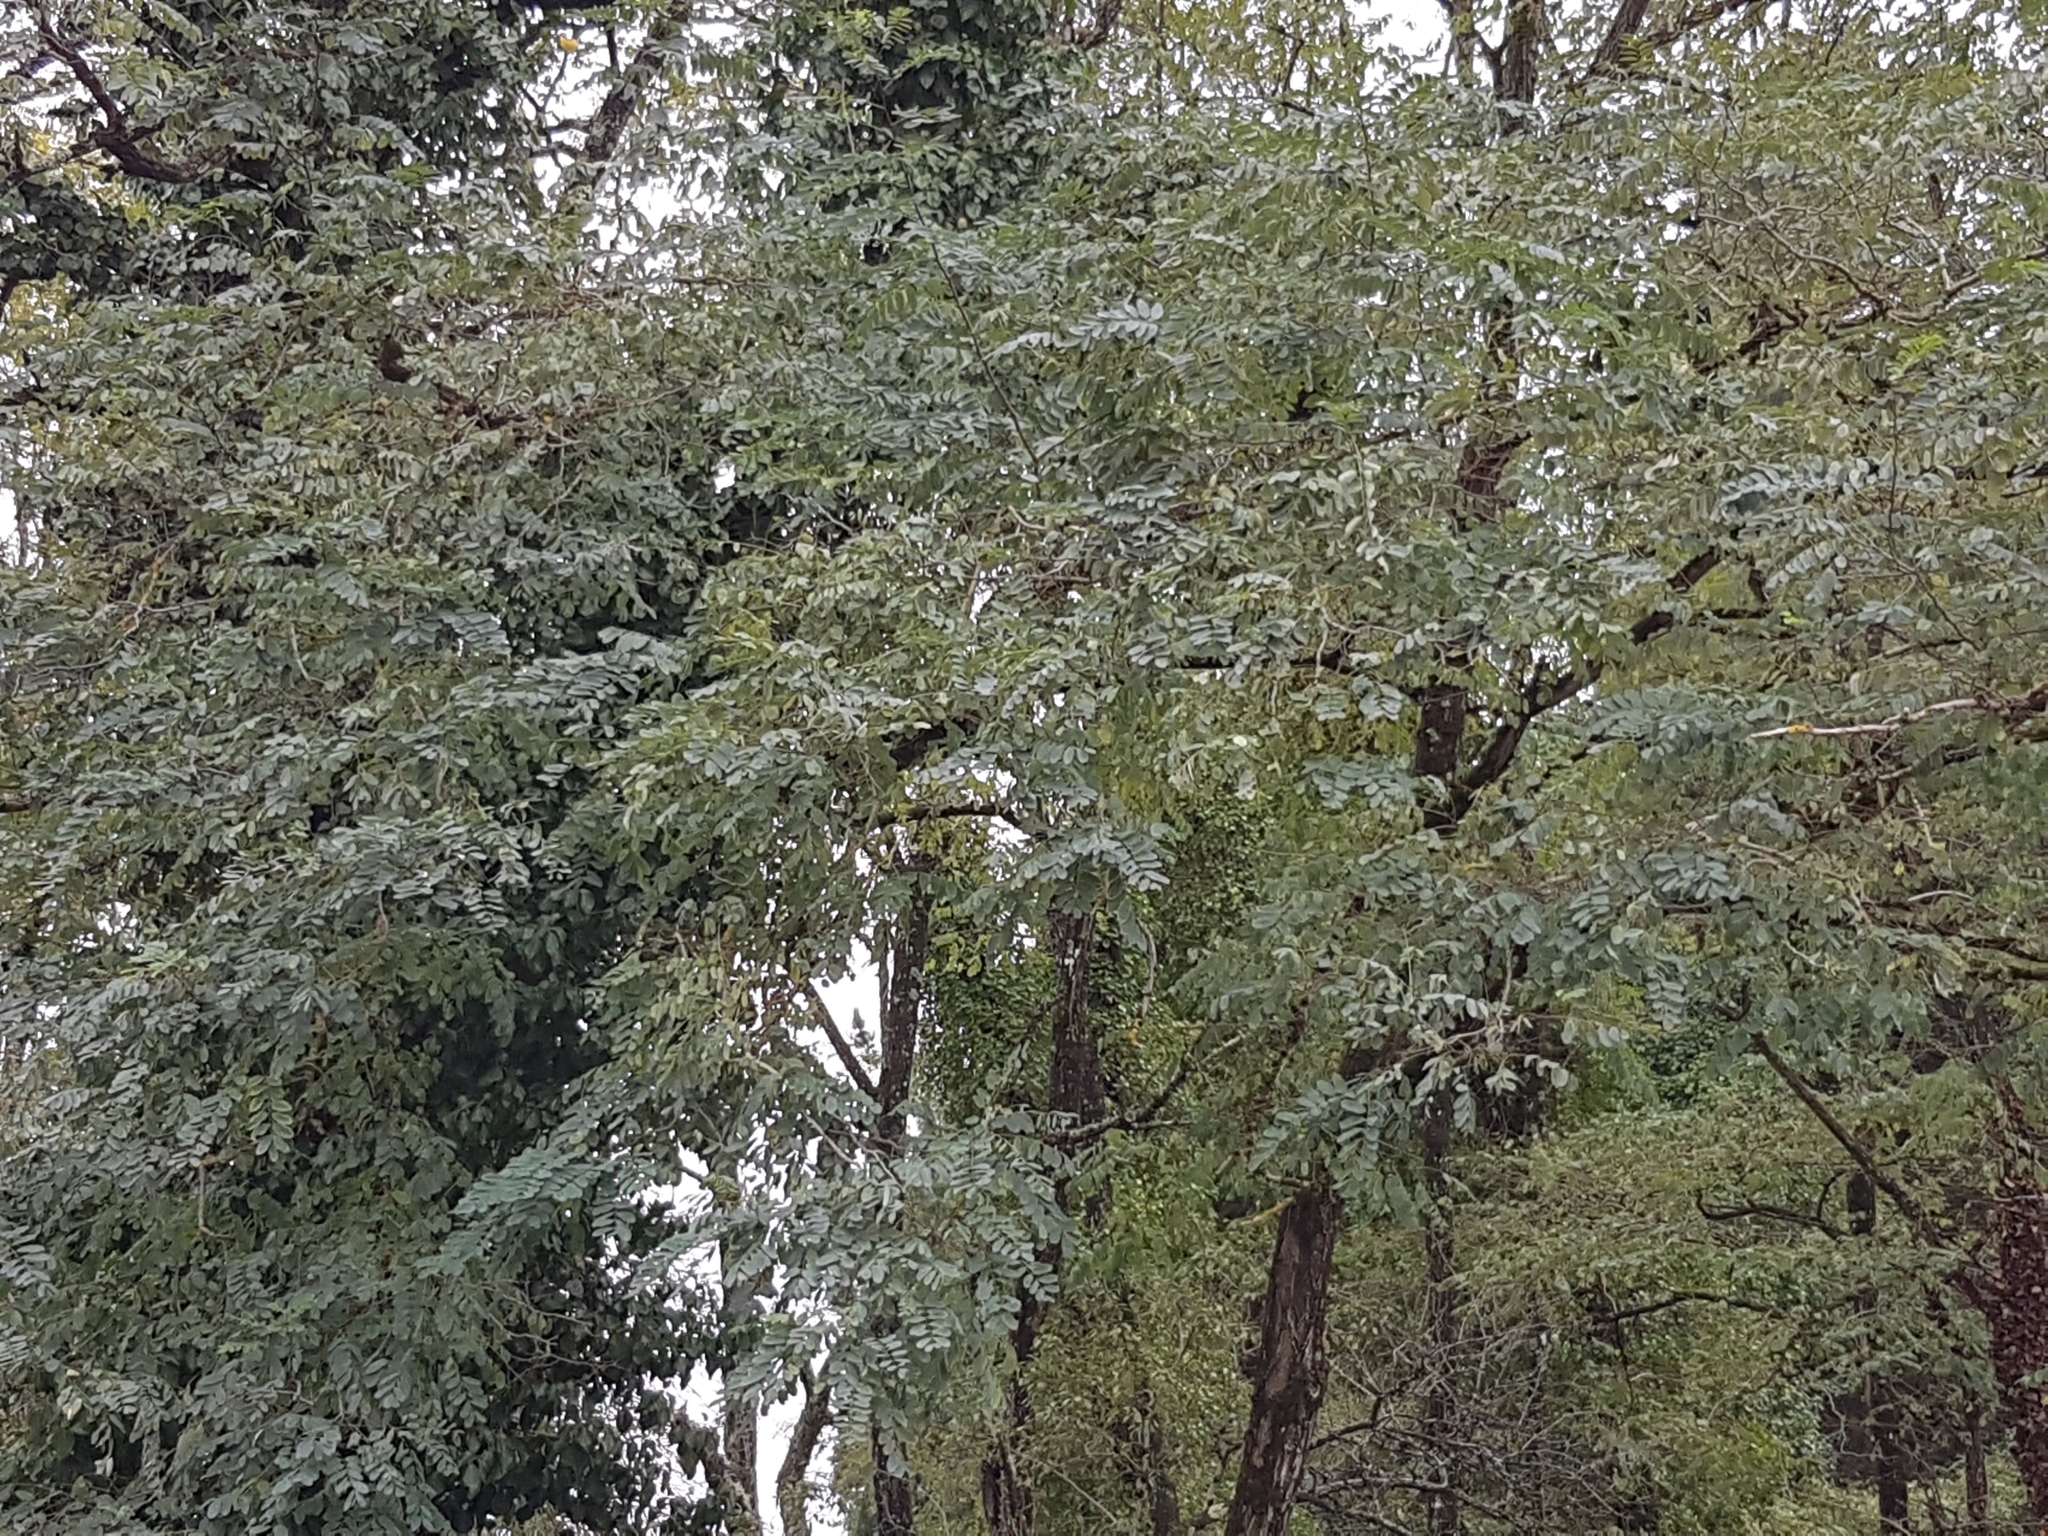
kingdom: Plantae
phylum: Tracheophyta
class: Magnoliopsida
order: Fabales
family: Fabaceae
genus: Robinia
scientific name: Robinia pseudoacacia
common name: Black locust
